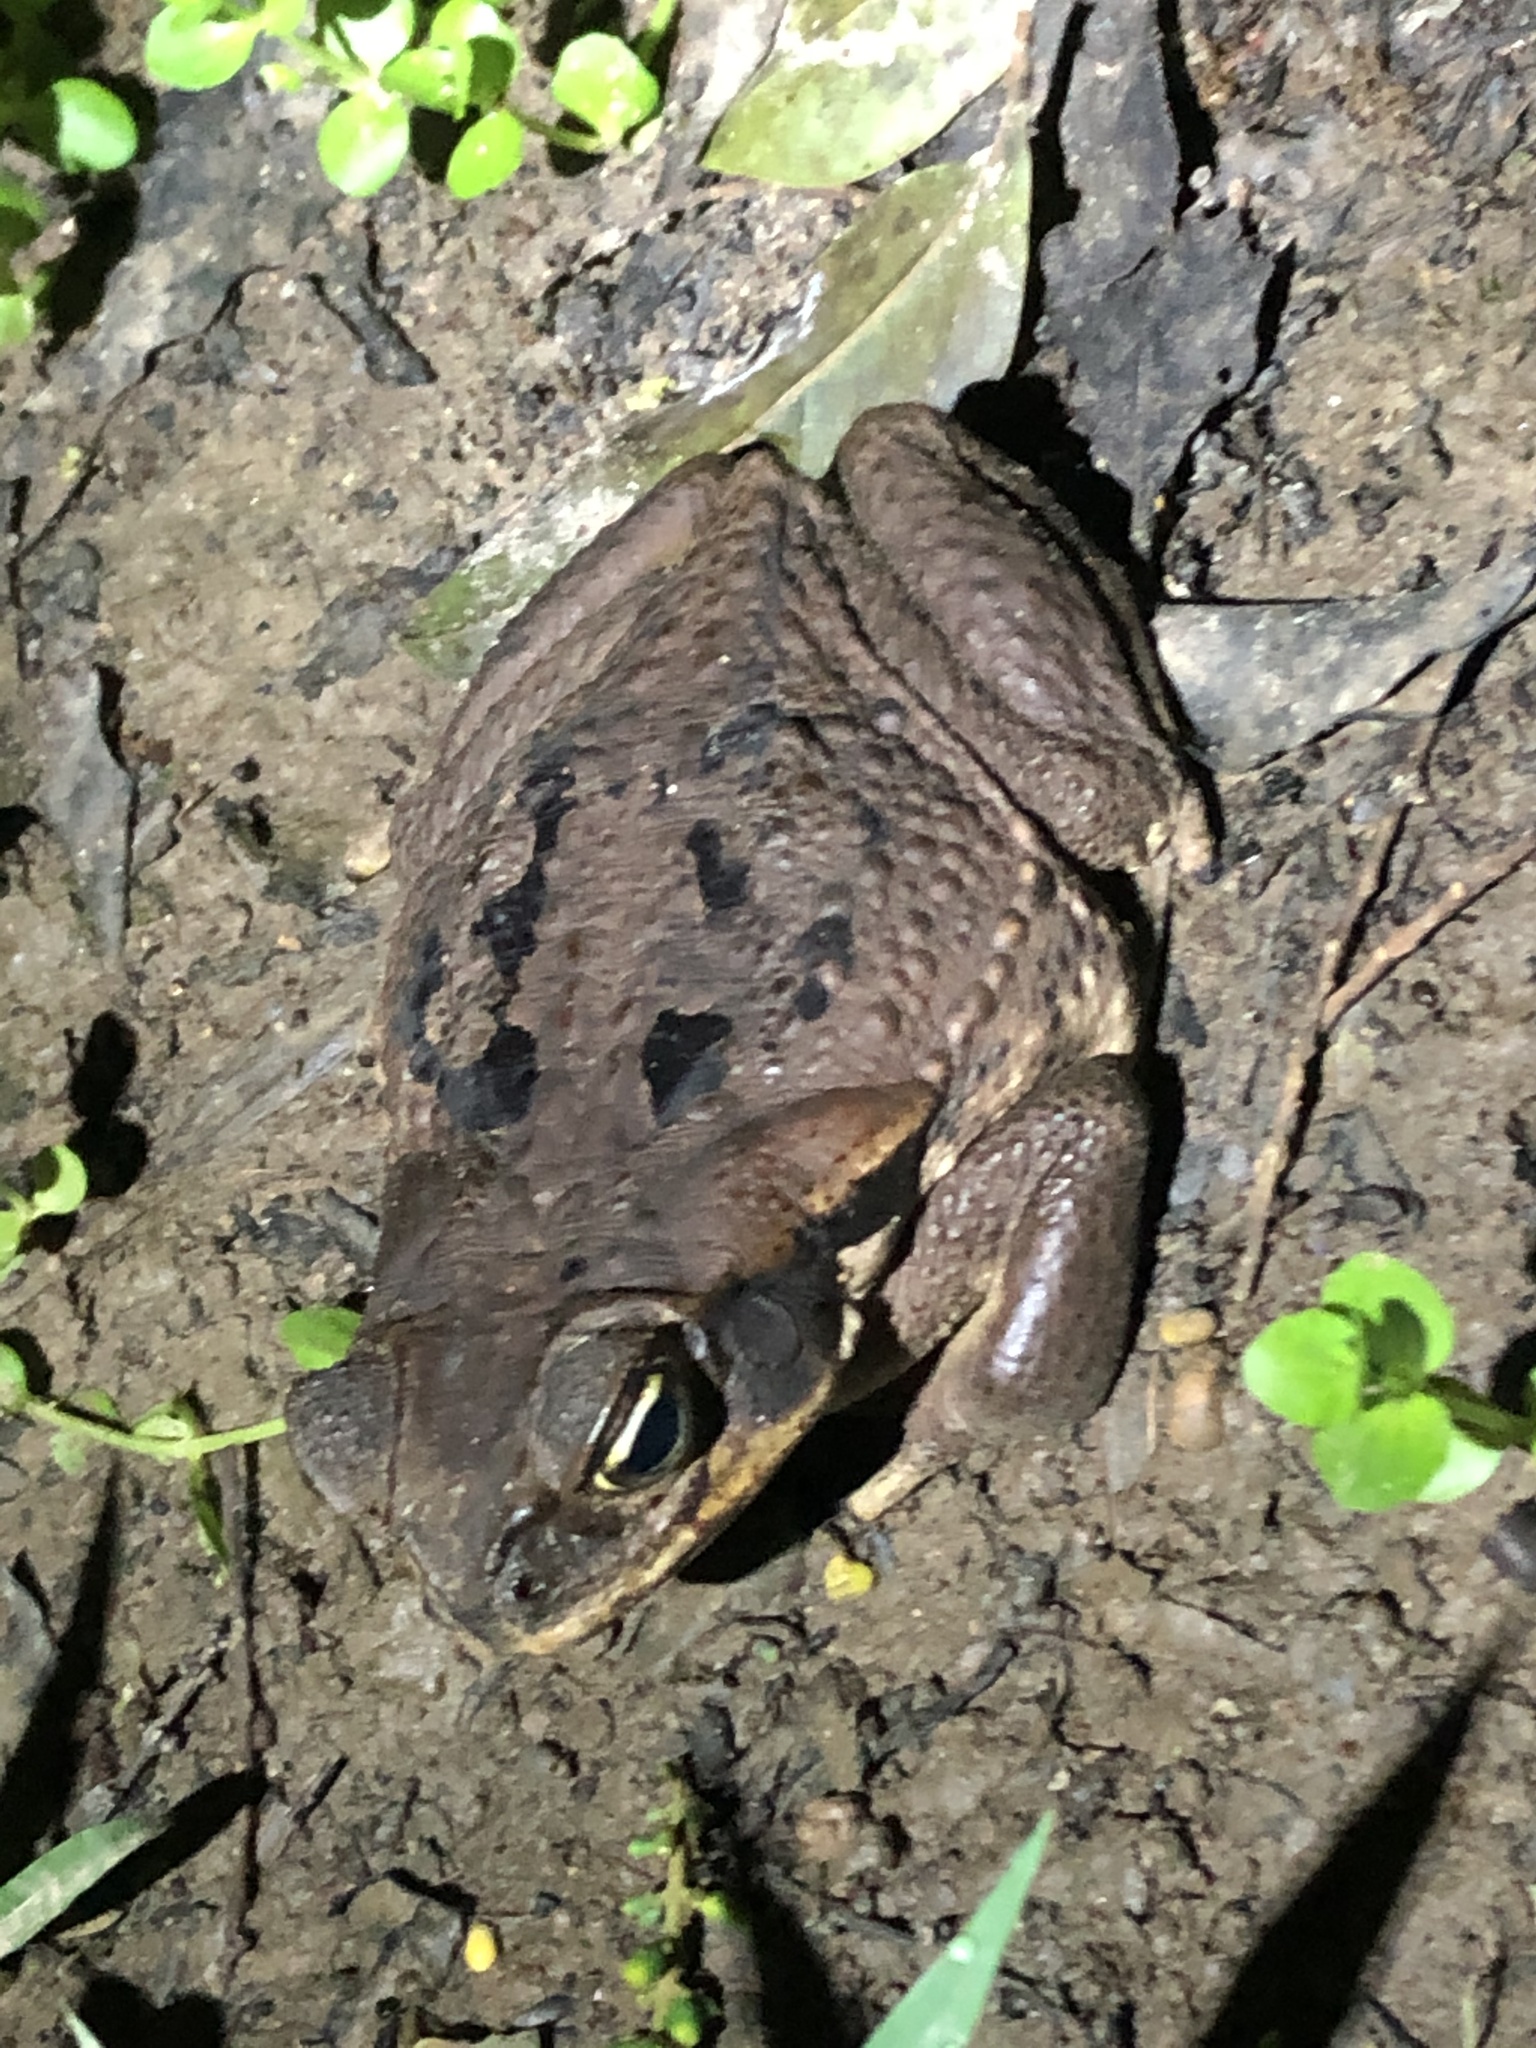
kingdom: Animalia
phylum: Chordata
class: Amphibia
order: Anura
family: Bufonidae
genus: Rhinella
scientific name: Rhinella marina
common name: Cane toad
